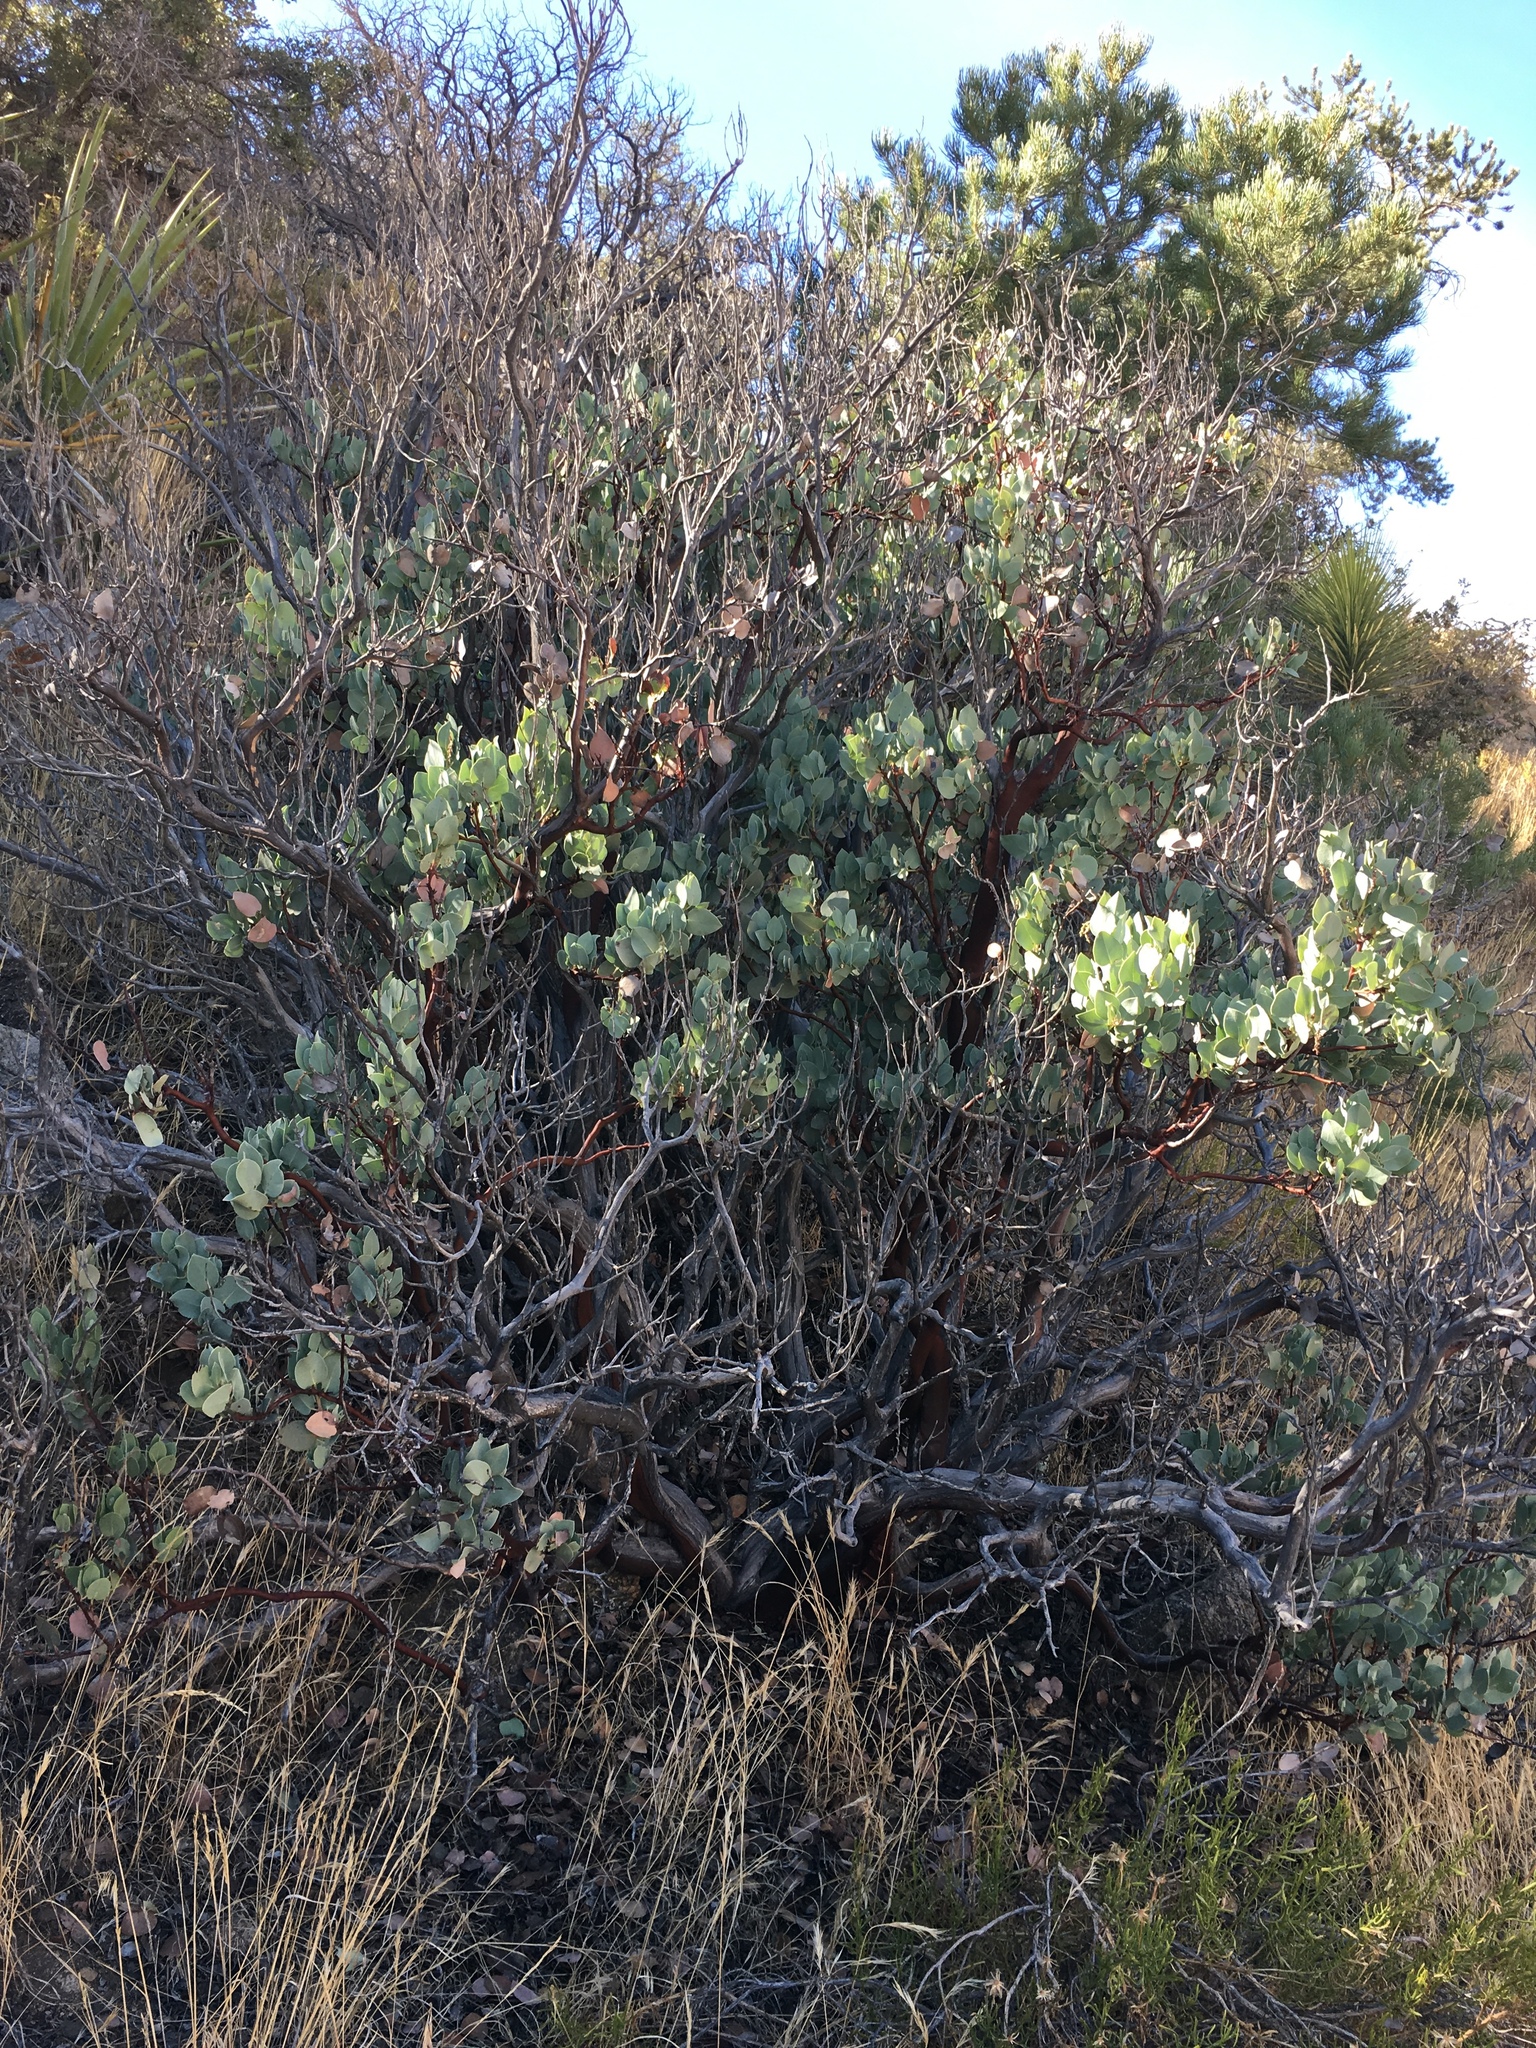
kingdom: Plantae
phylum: Tracheophyta
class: Magnoliopsida
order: Ericales
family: Ericaceae
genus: Arctostaphylos
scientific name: Arctostaphylos glauca
